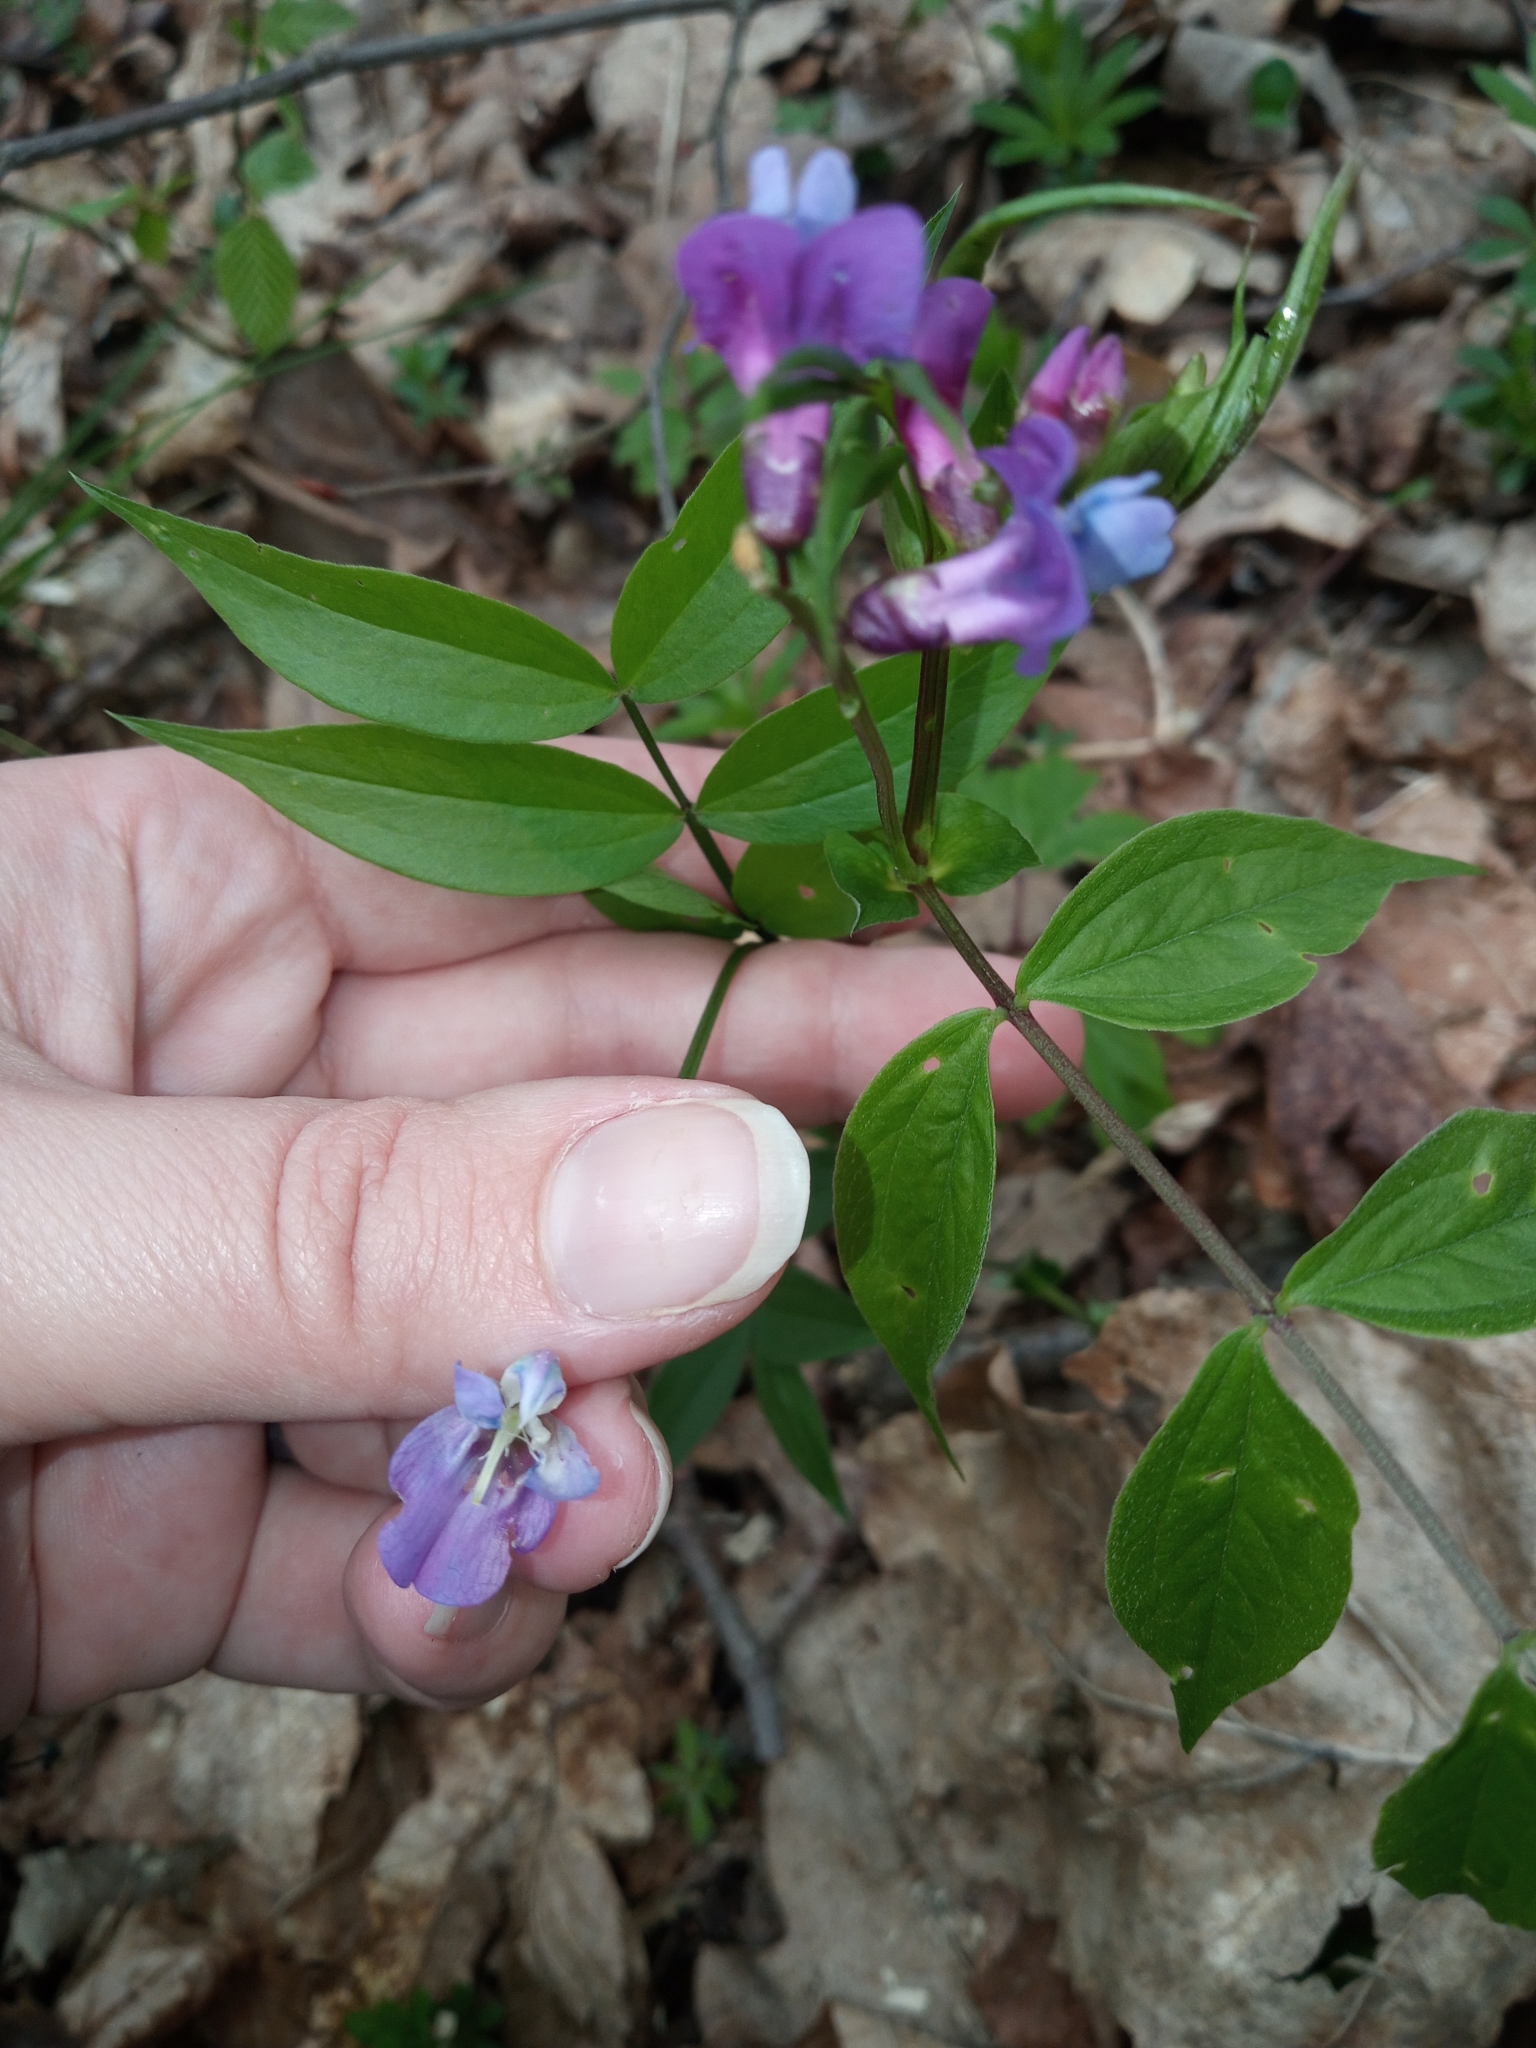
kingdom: Plantae
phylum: Tracheophyta
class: Magnoliopsida
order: Fabales
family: Fabaceae
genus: Lathyrus
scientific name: Lathyrus vernus
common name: Spring pea
